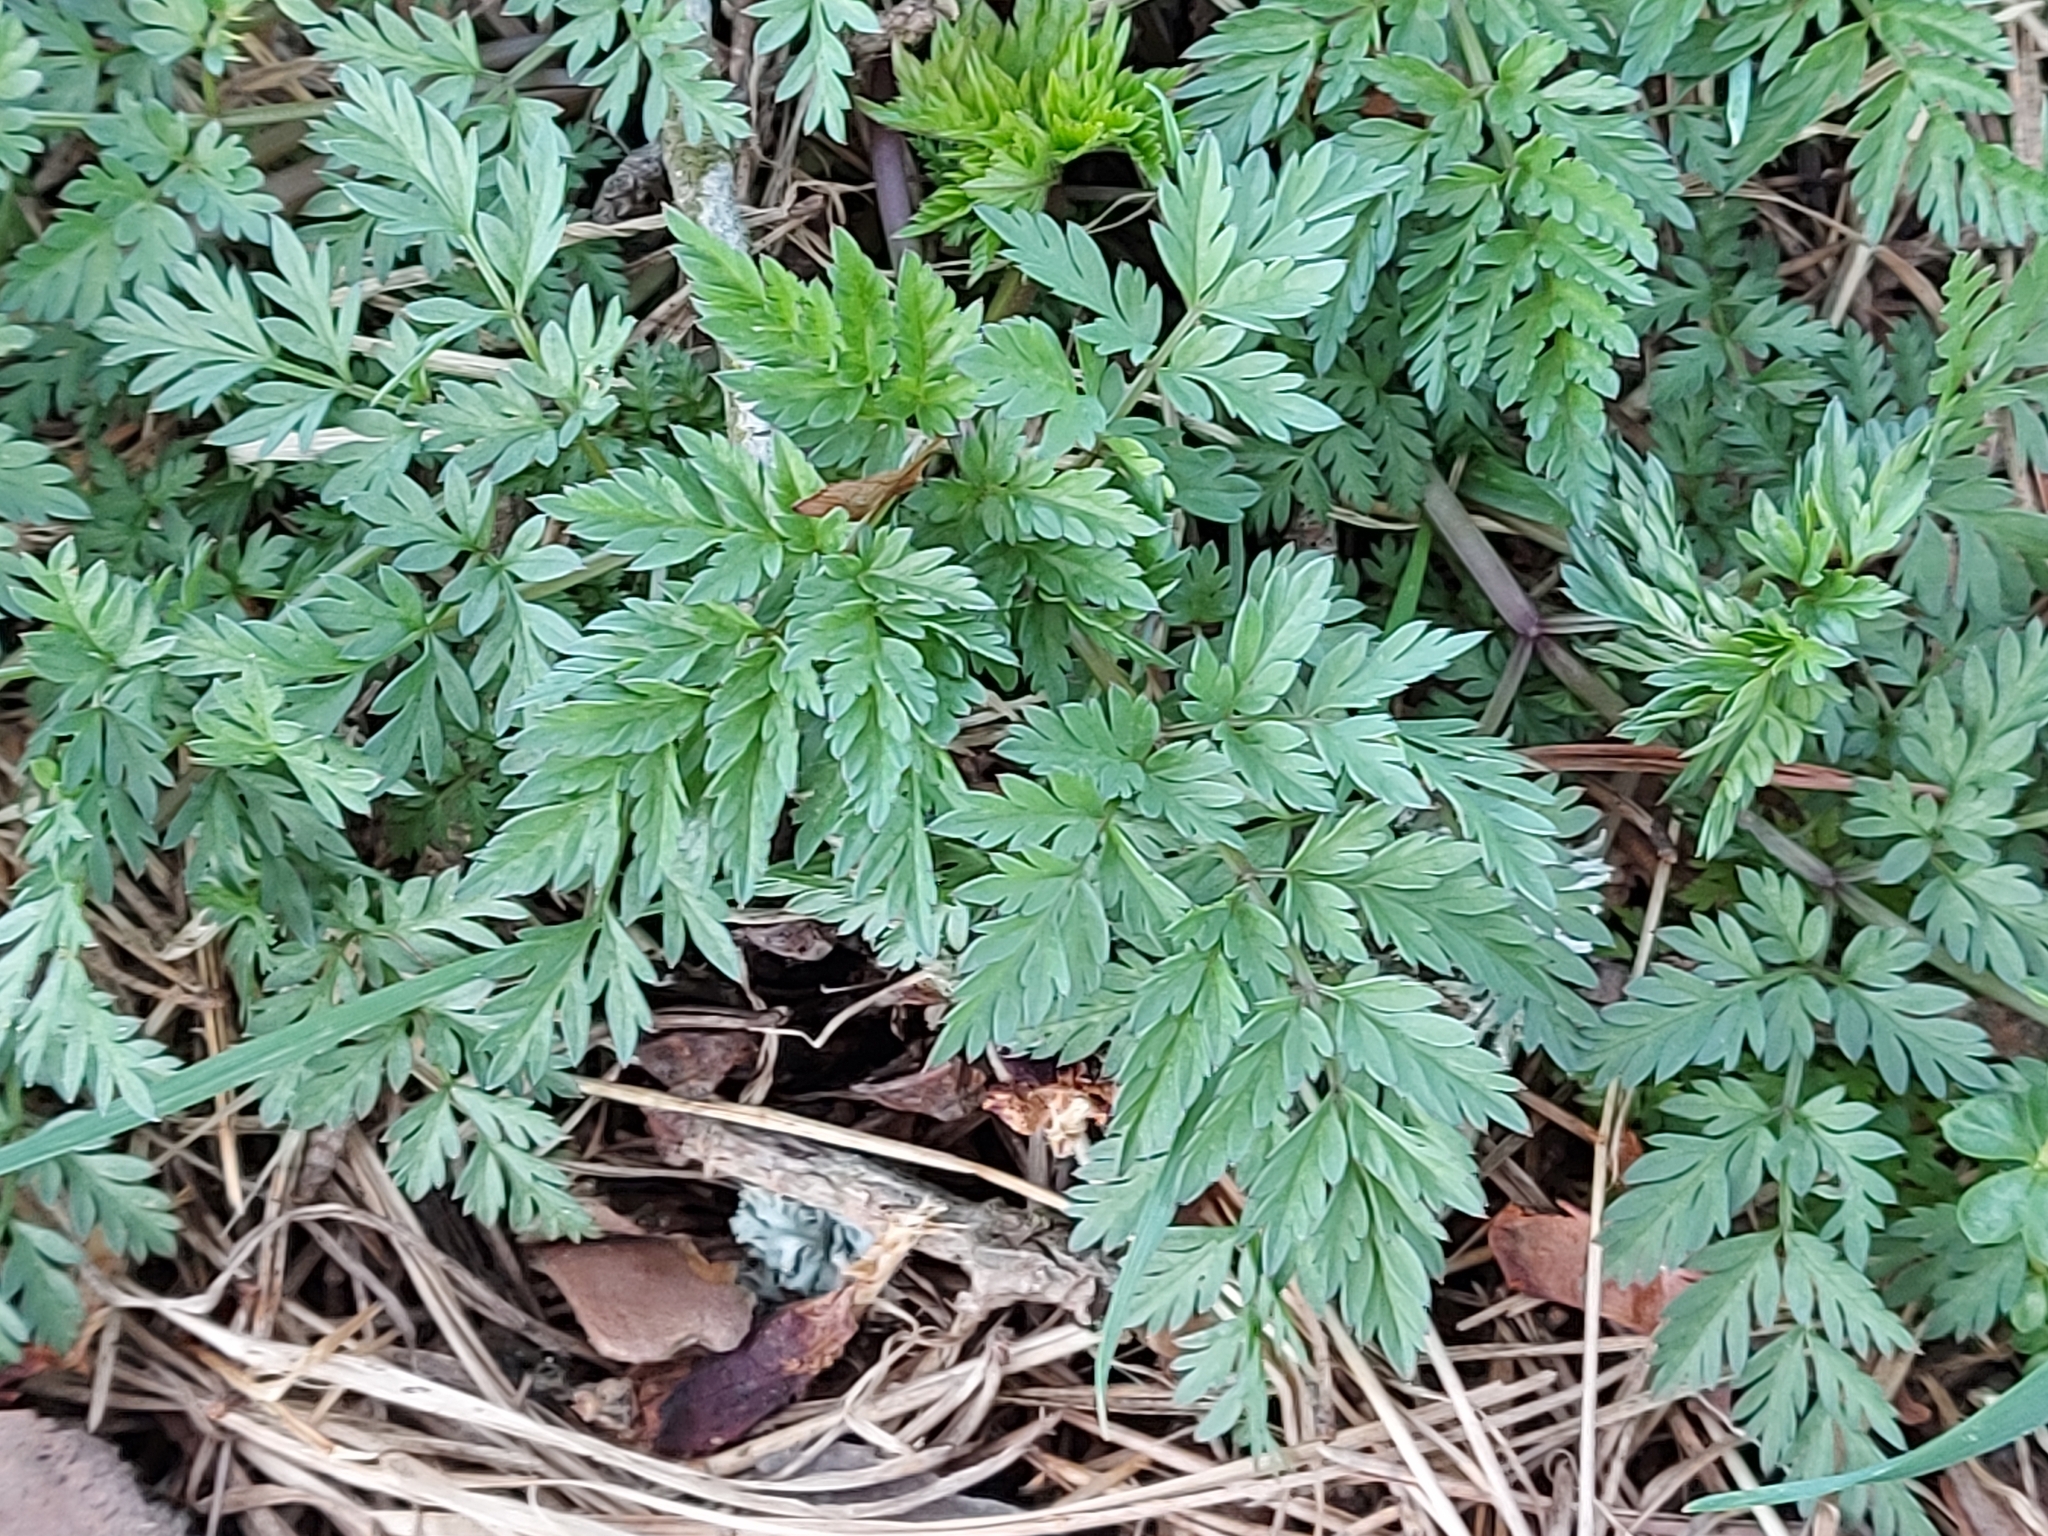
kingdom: Plantae
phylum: Tracheophyta
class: Magnoliopsida
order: Apiales
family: Apiaceae
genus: Anthriscus
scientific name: Anthriscus sylvestris
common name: Cow parsley
